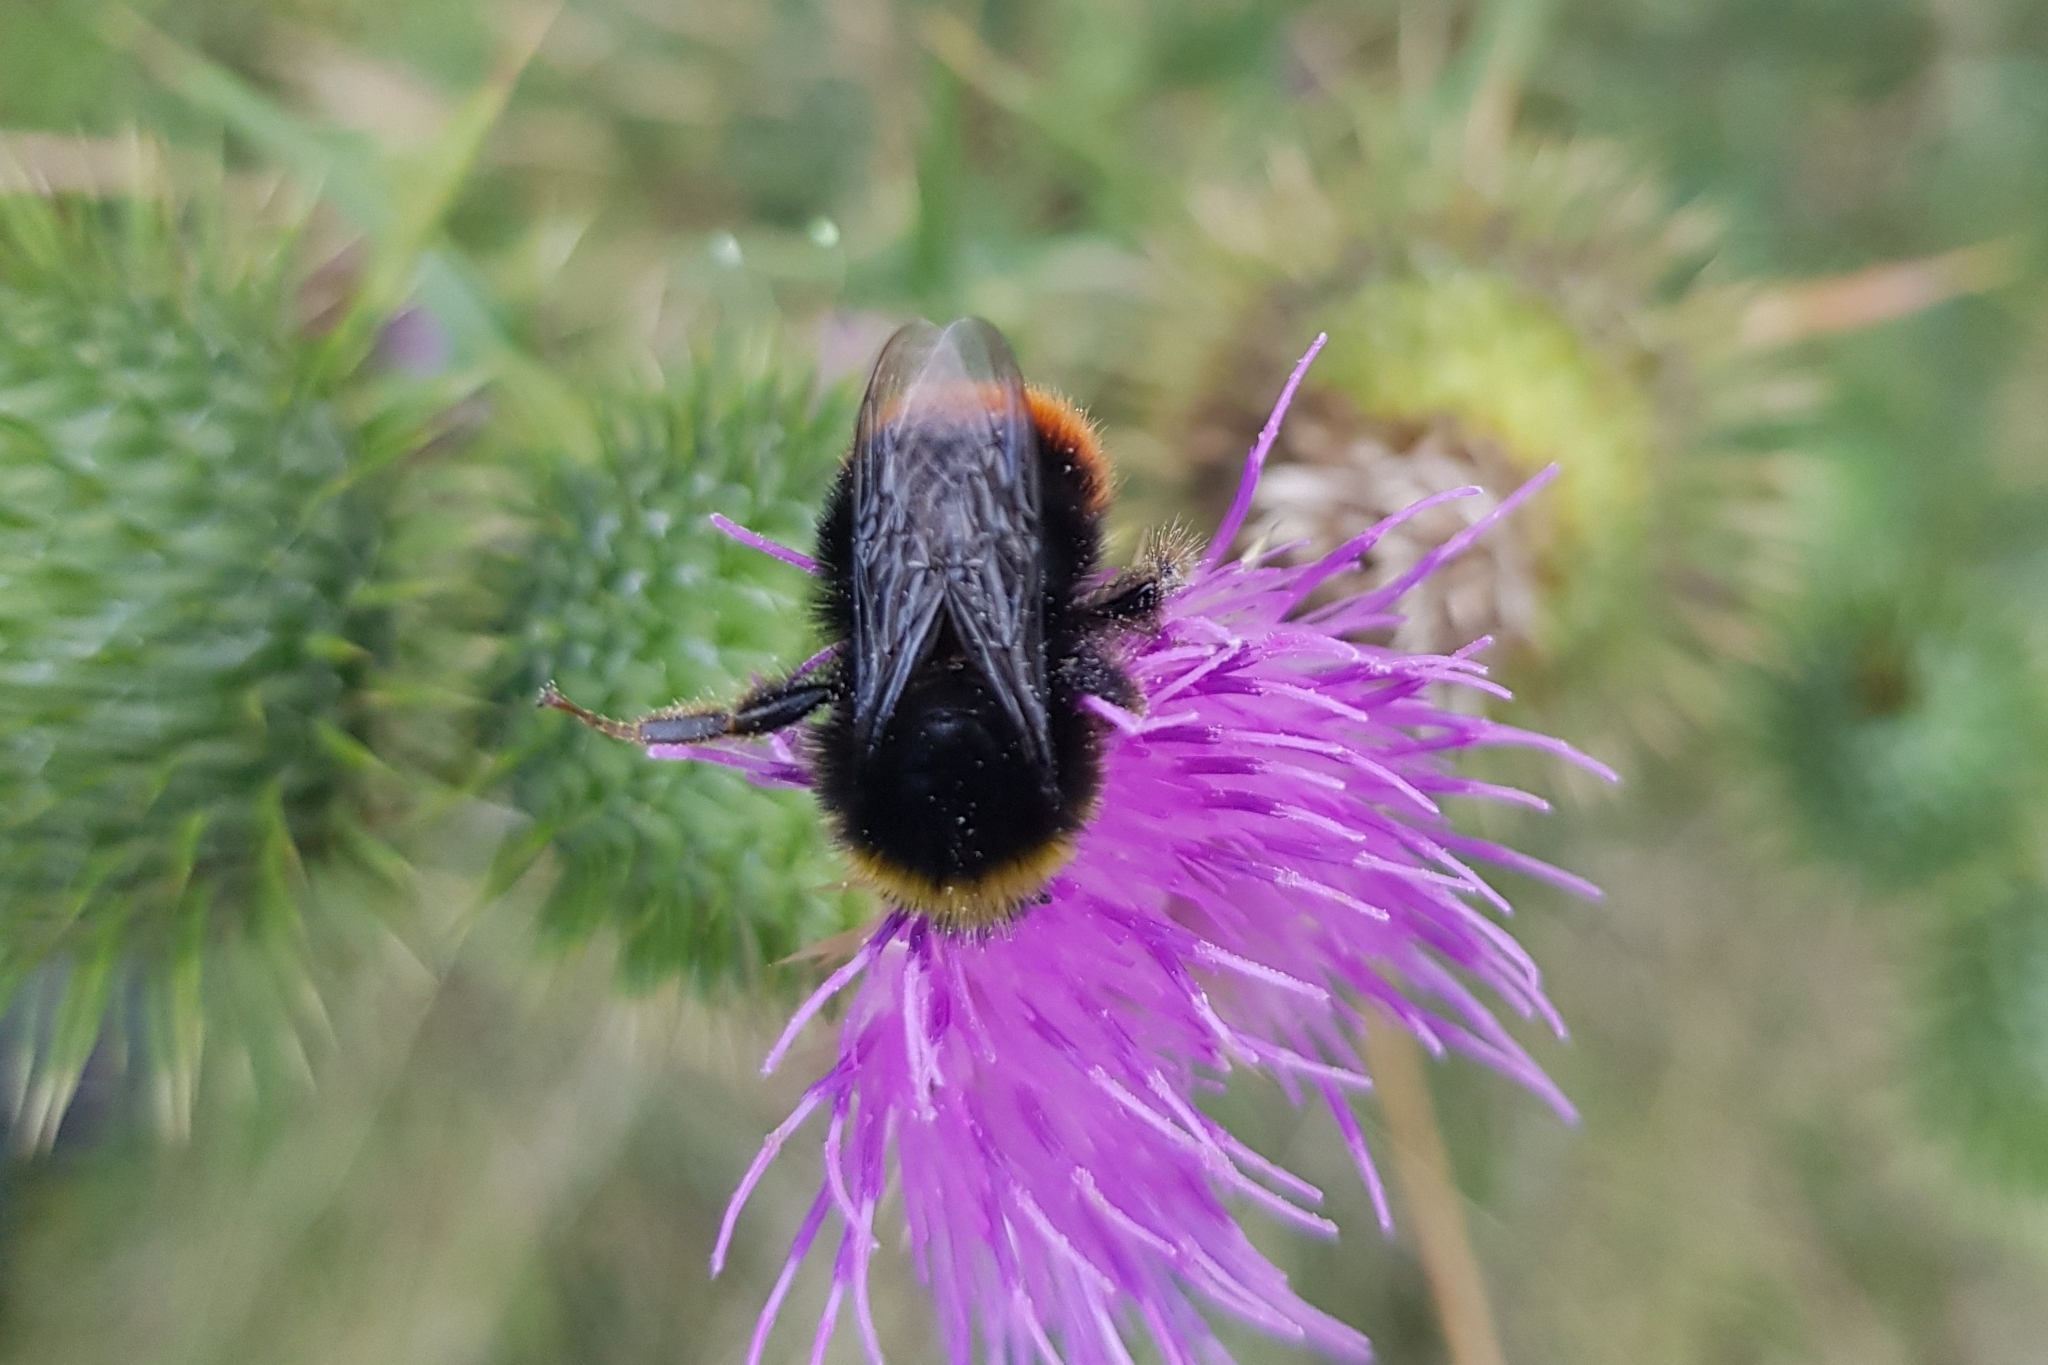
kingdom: Animalia
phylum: Arthropoda
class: Insecta
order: Hymenoptera
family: Apidae
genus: Bombus
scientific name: Bombus lapidarius
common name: Large red-tailed humble-bee
